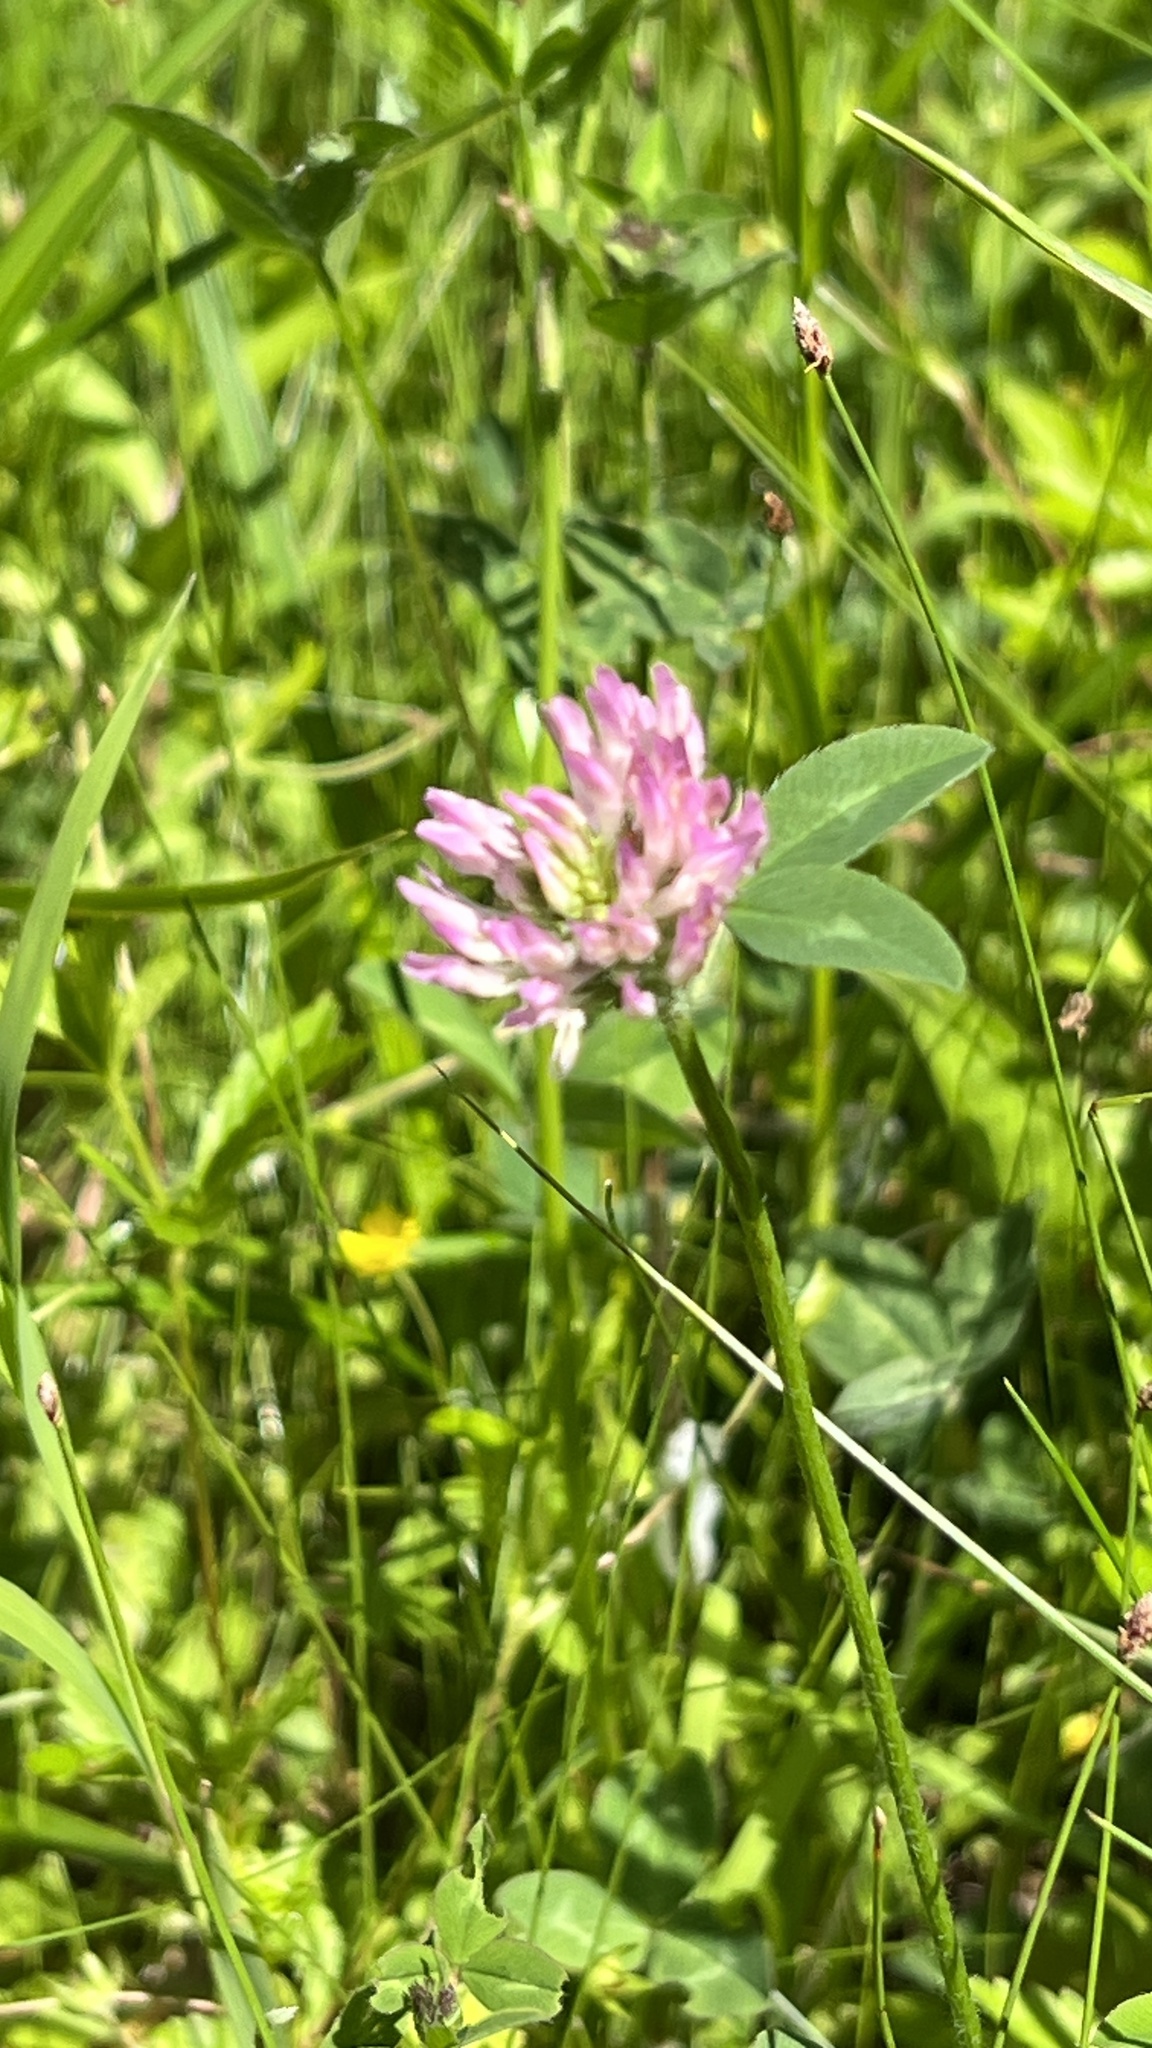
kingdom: Plantae
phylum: Tracheophyta
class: Magnoliopsida
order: Fabales
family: Fabaceae
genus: Trifolium
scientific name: Trifolium pratense
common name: Red clover
